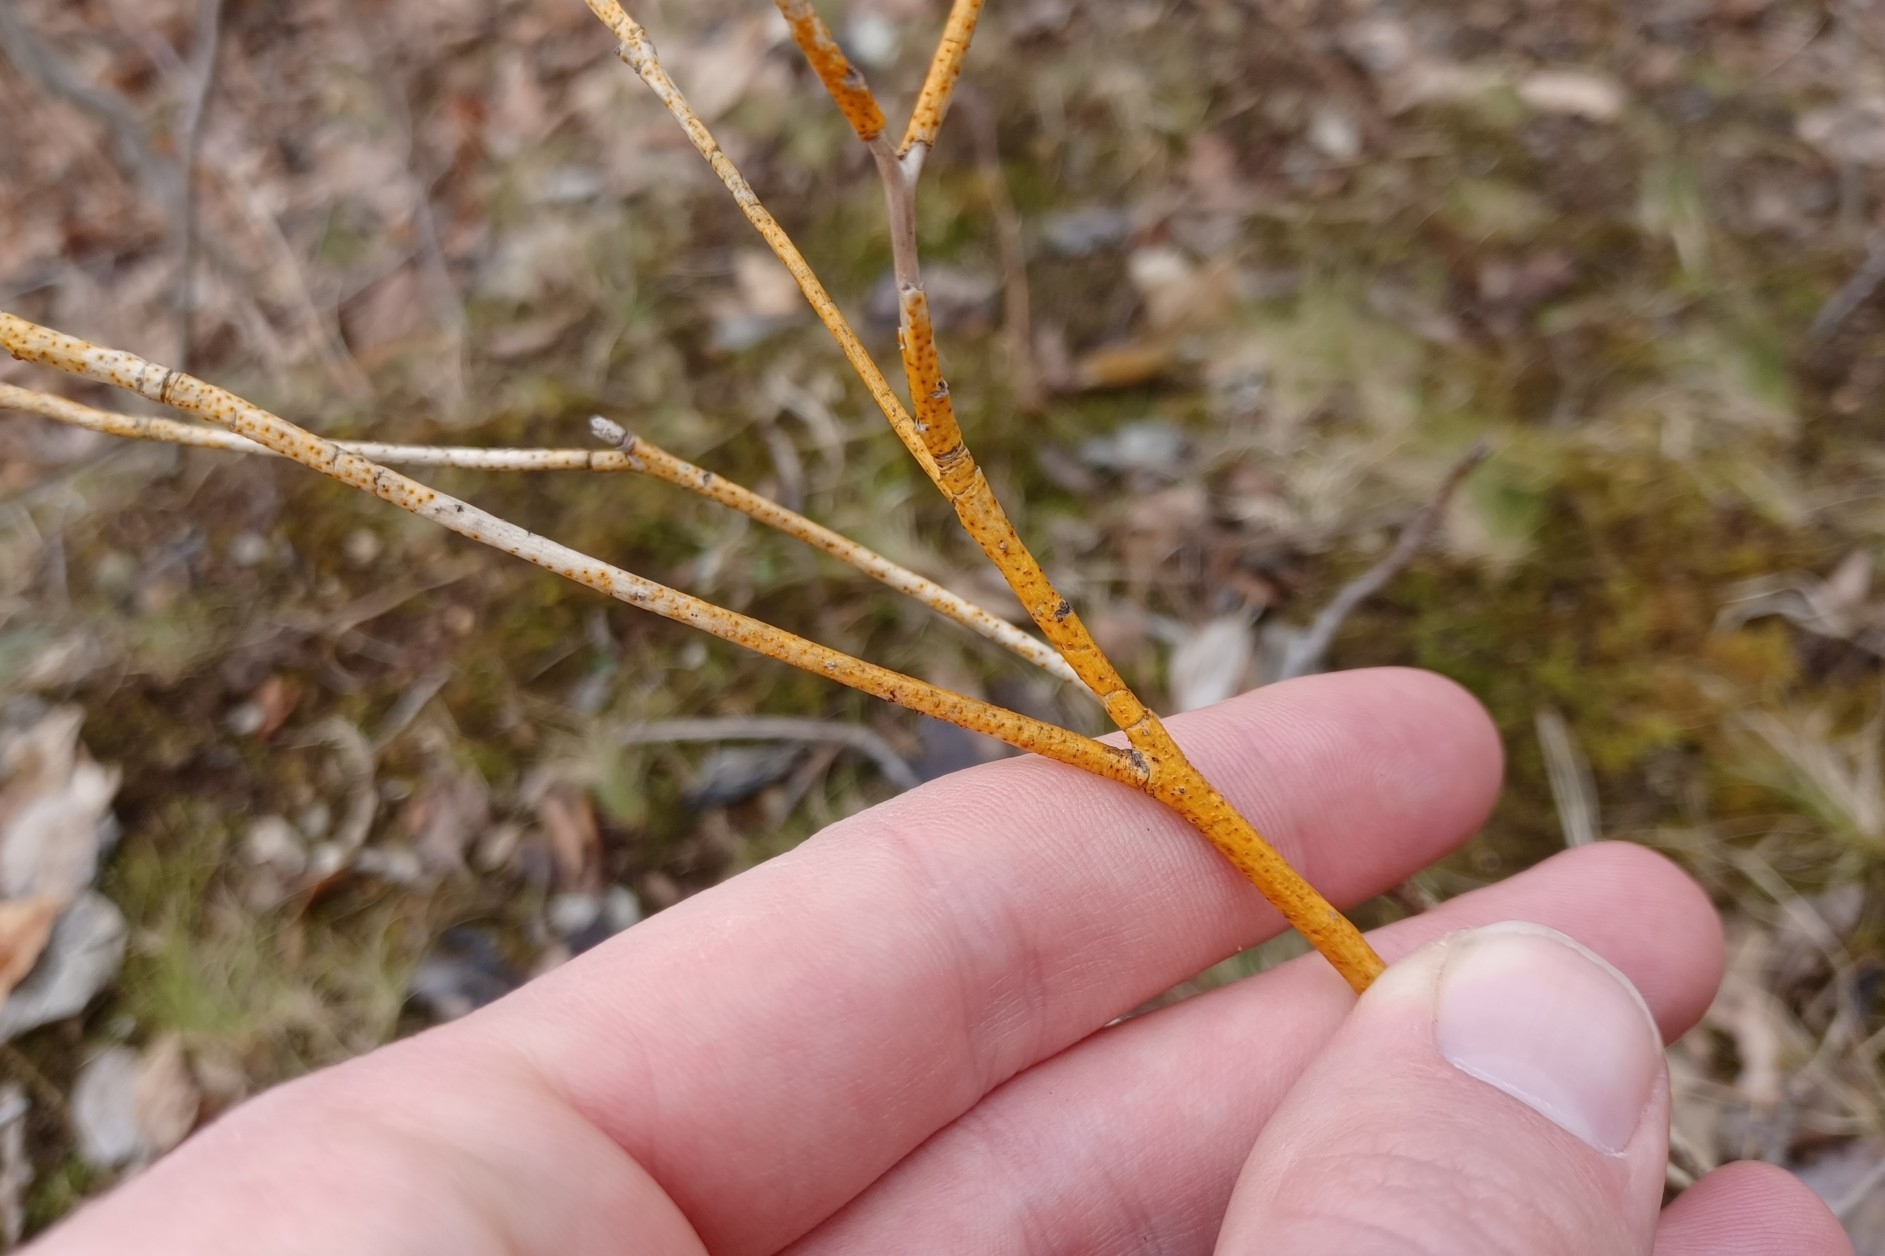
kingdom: Fungi
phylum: Ascomycota
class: Sordariomycetes
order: Diaporthales
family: Cryphonectriaceae
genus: Aurantioporthe
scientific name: Aurantioporthe corni
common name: Dogwood golden canker
